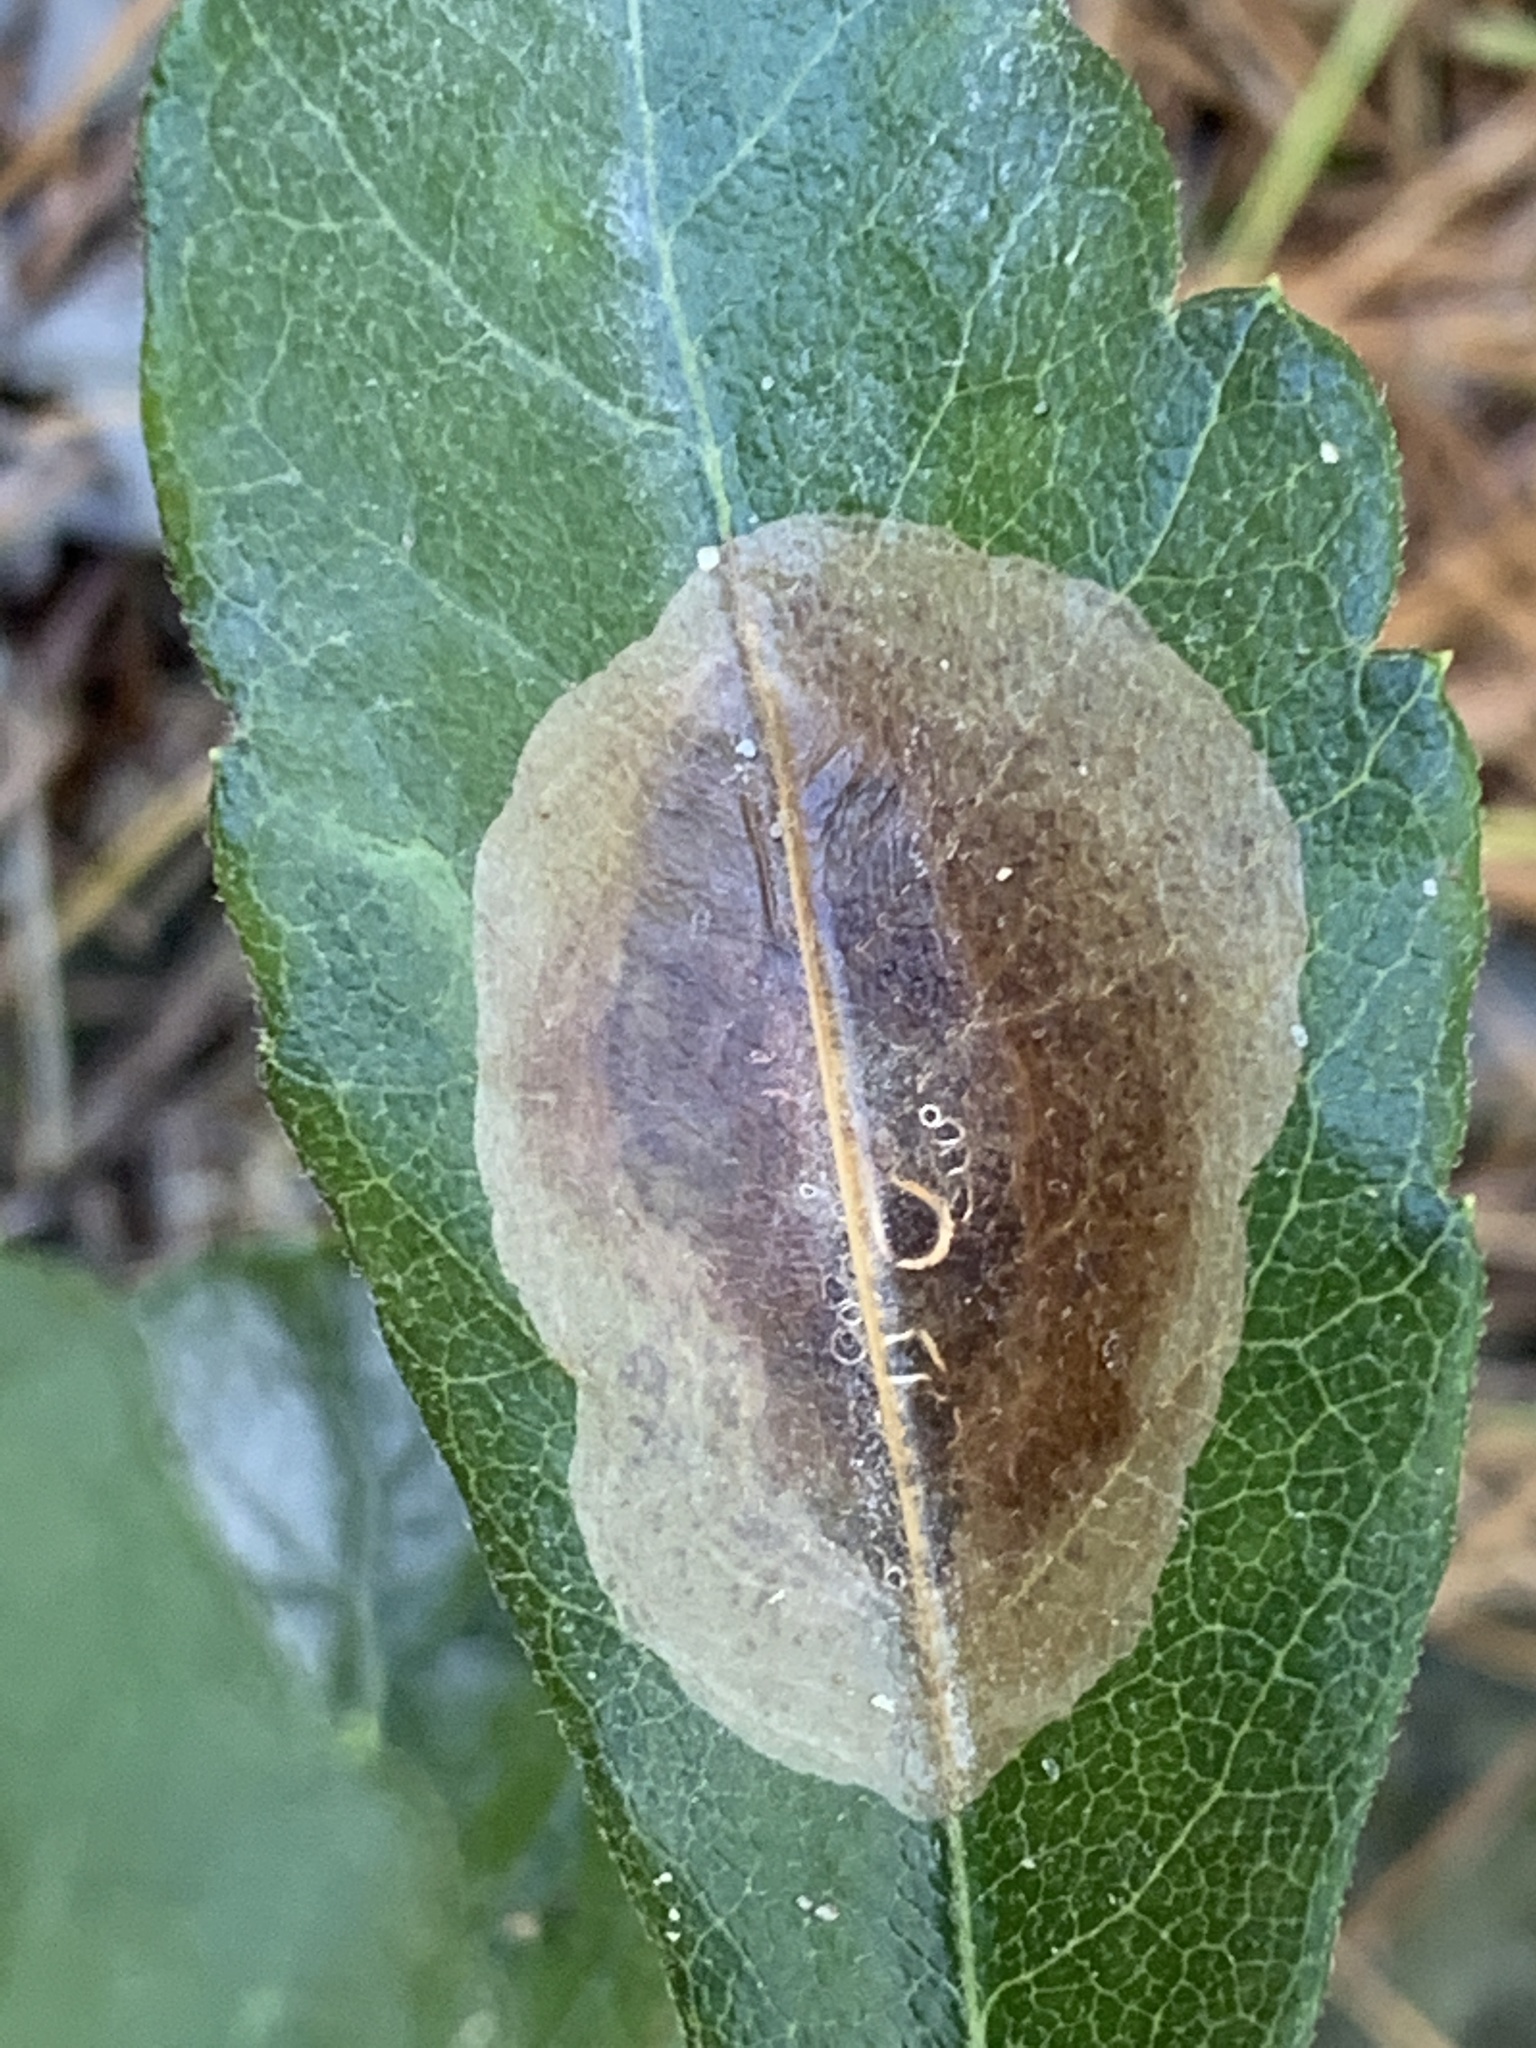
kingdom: Animalia
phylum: Arthropoda
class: Insecta
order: Lepidoptera
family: Gracillariidae
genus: Cameraria
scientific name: Cameraria picturatella
